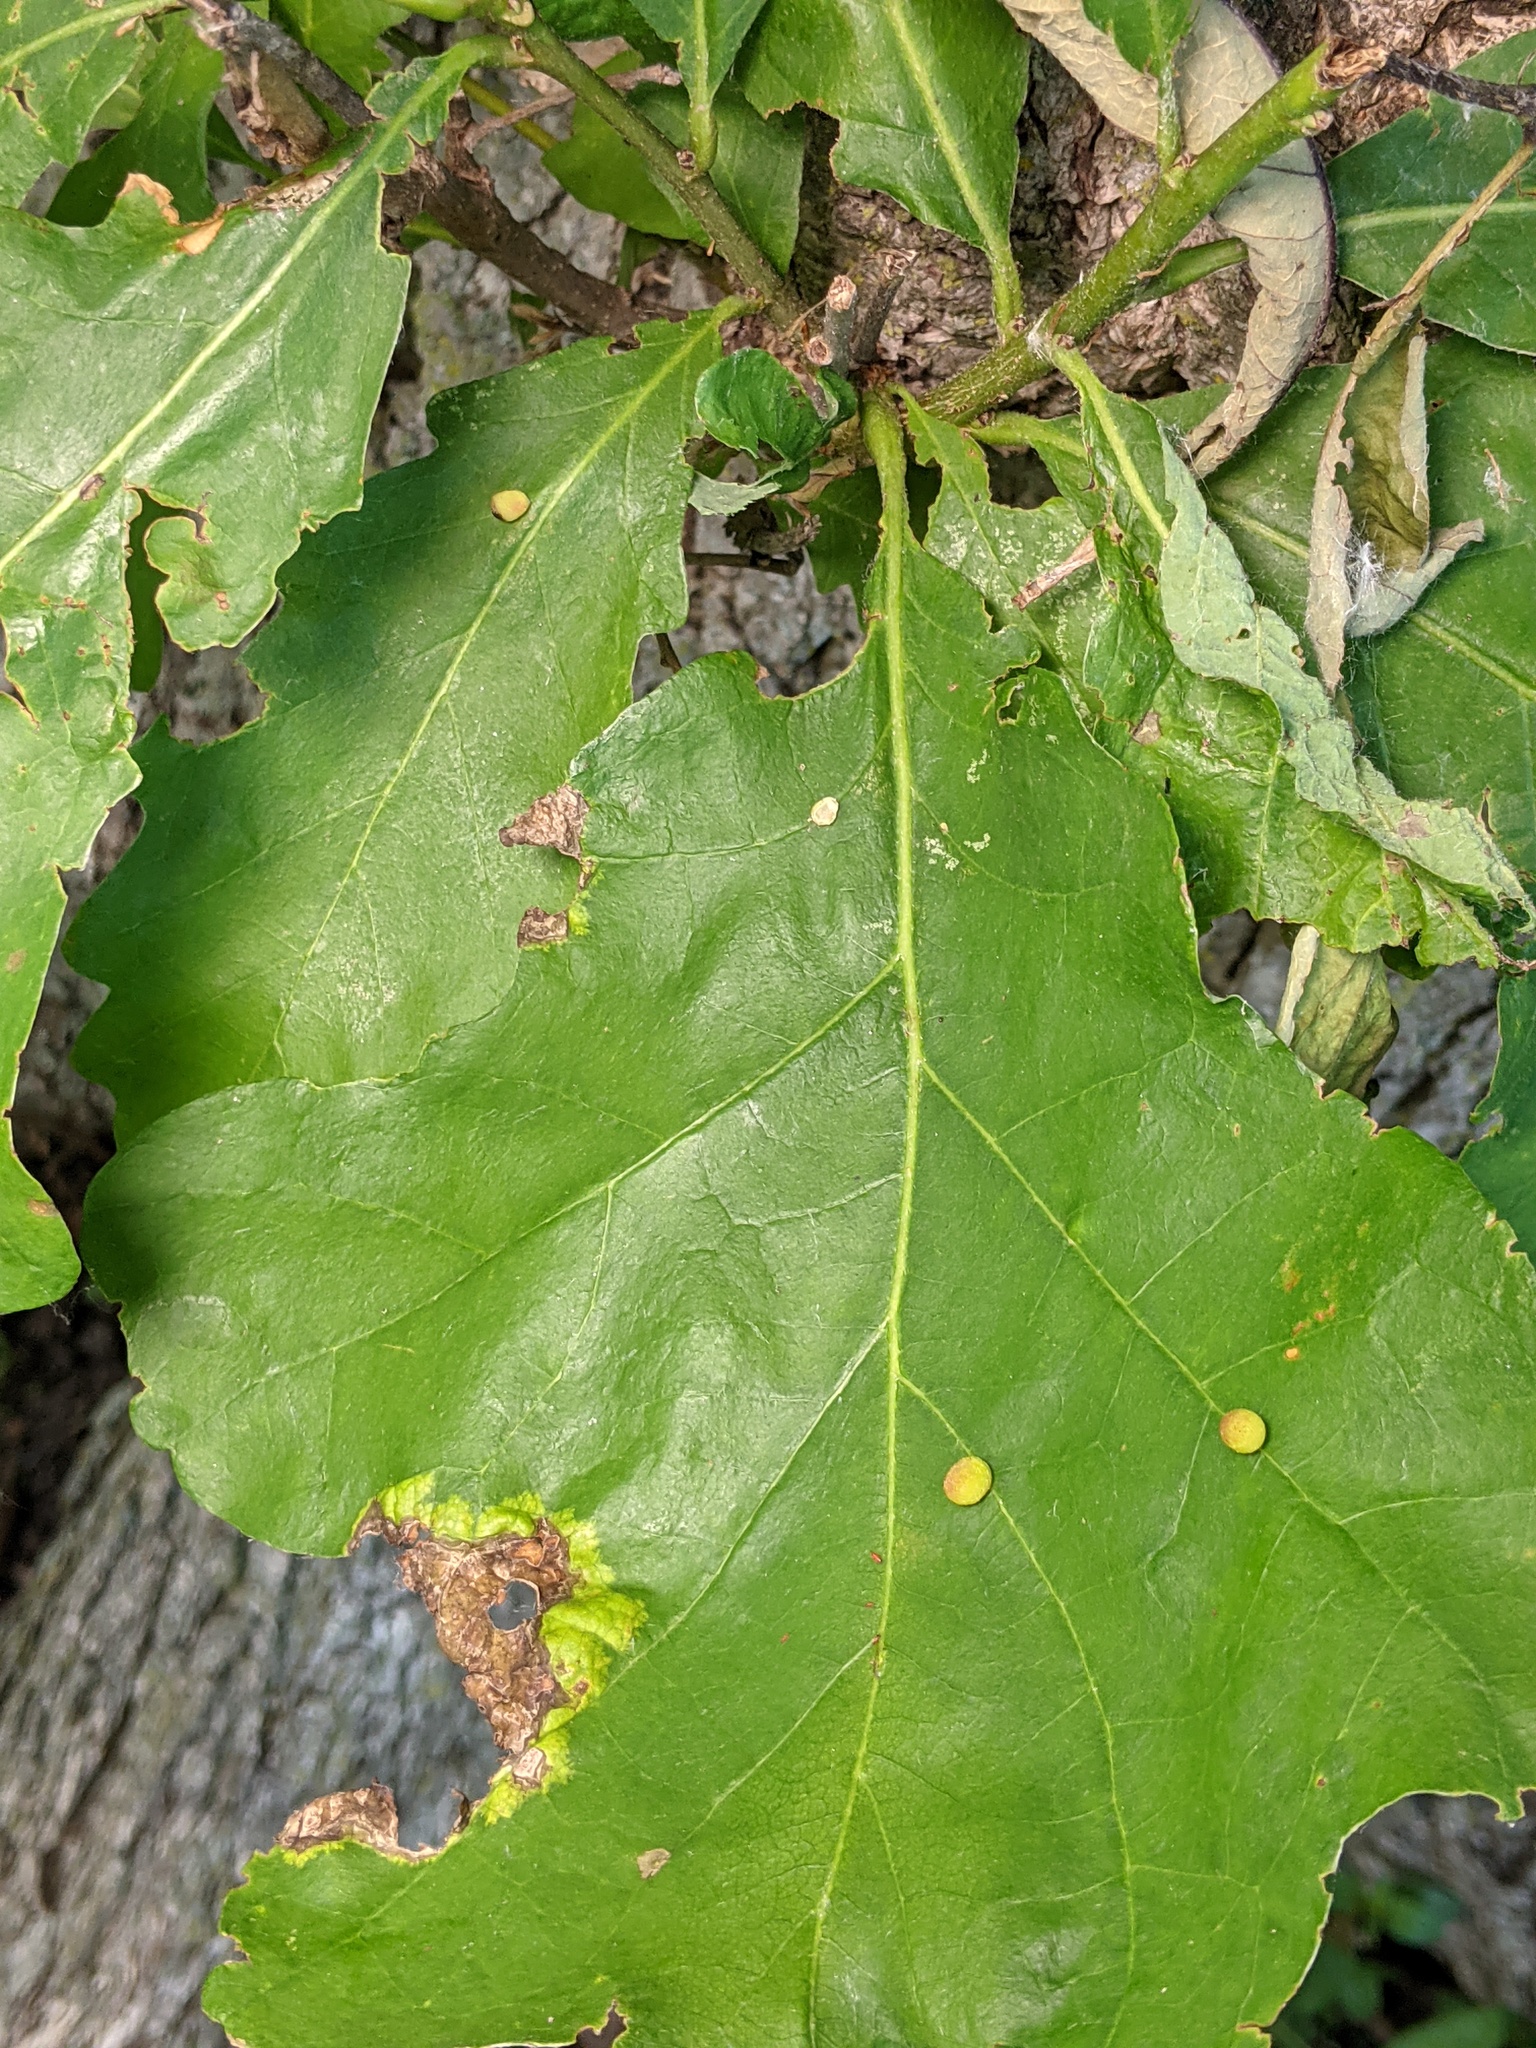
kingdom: Animalia
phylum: Arthropoda
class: Insecta
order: Hymenoptera
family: Cynipidae
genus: Acraspis
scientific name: Acraspis quercushirta
